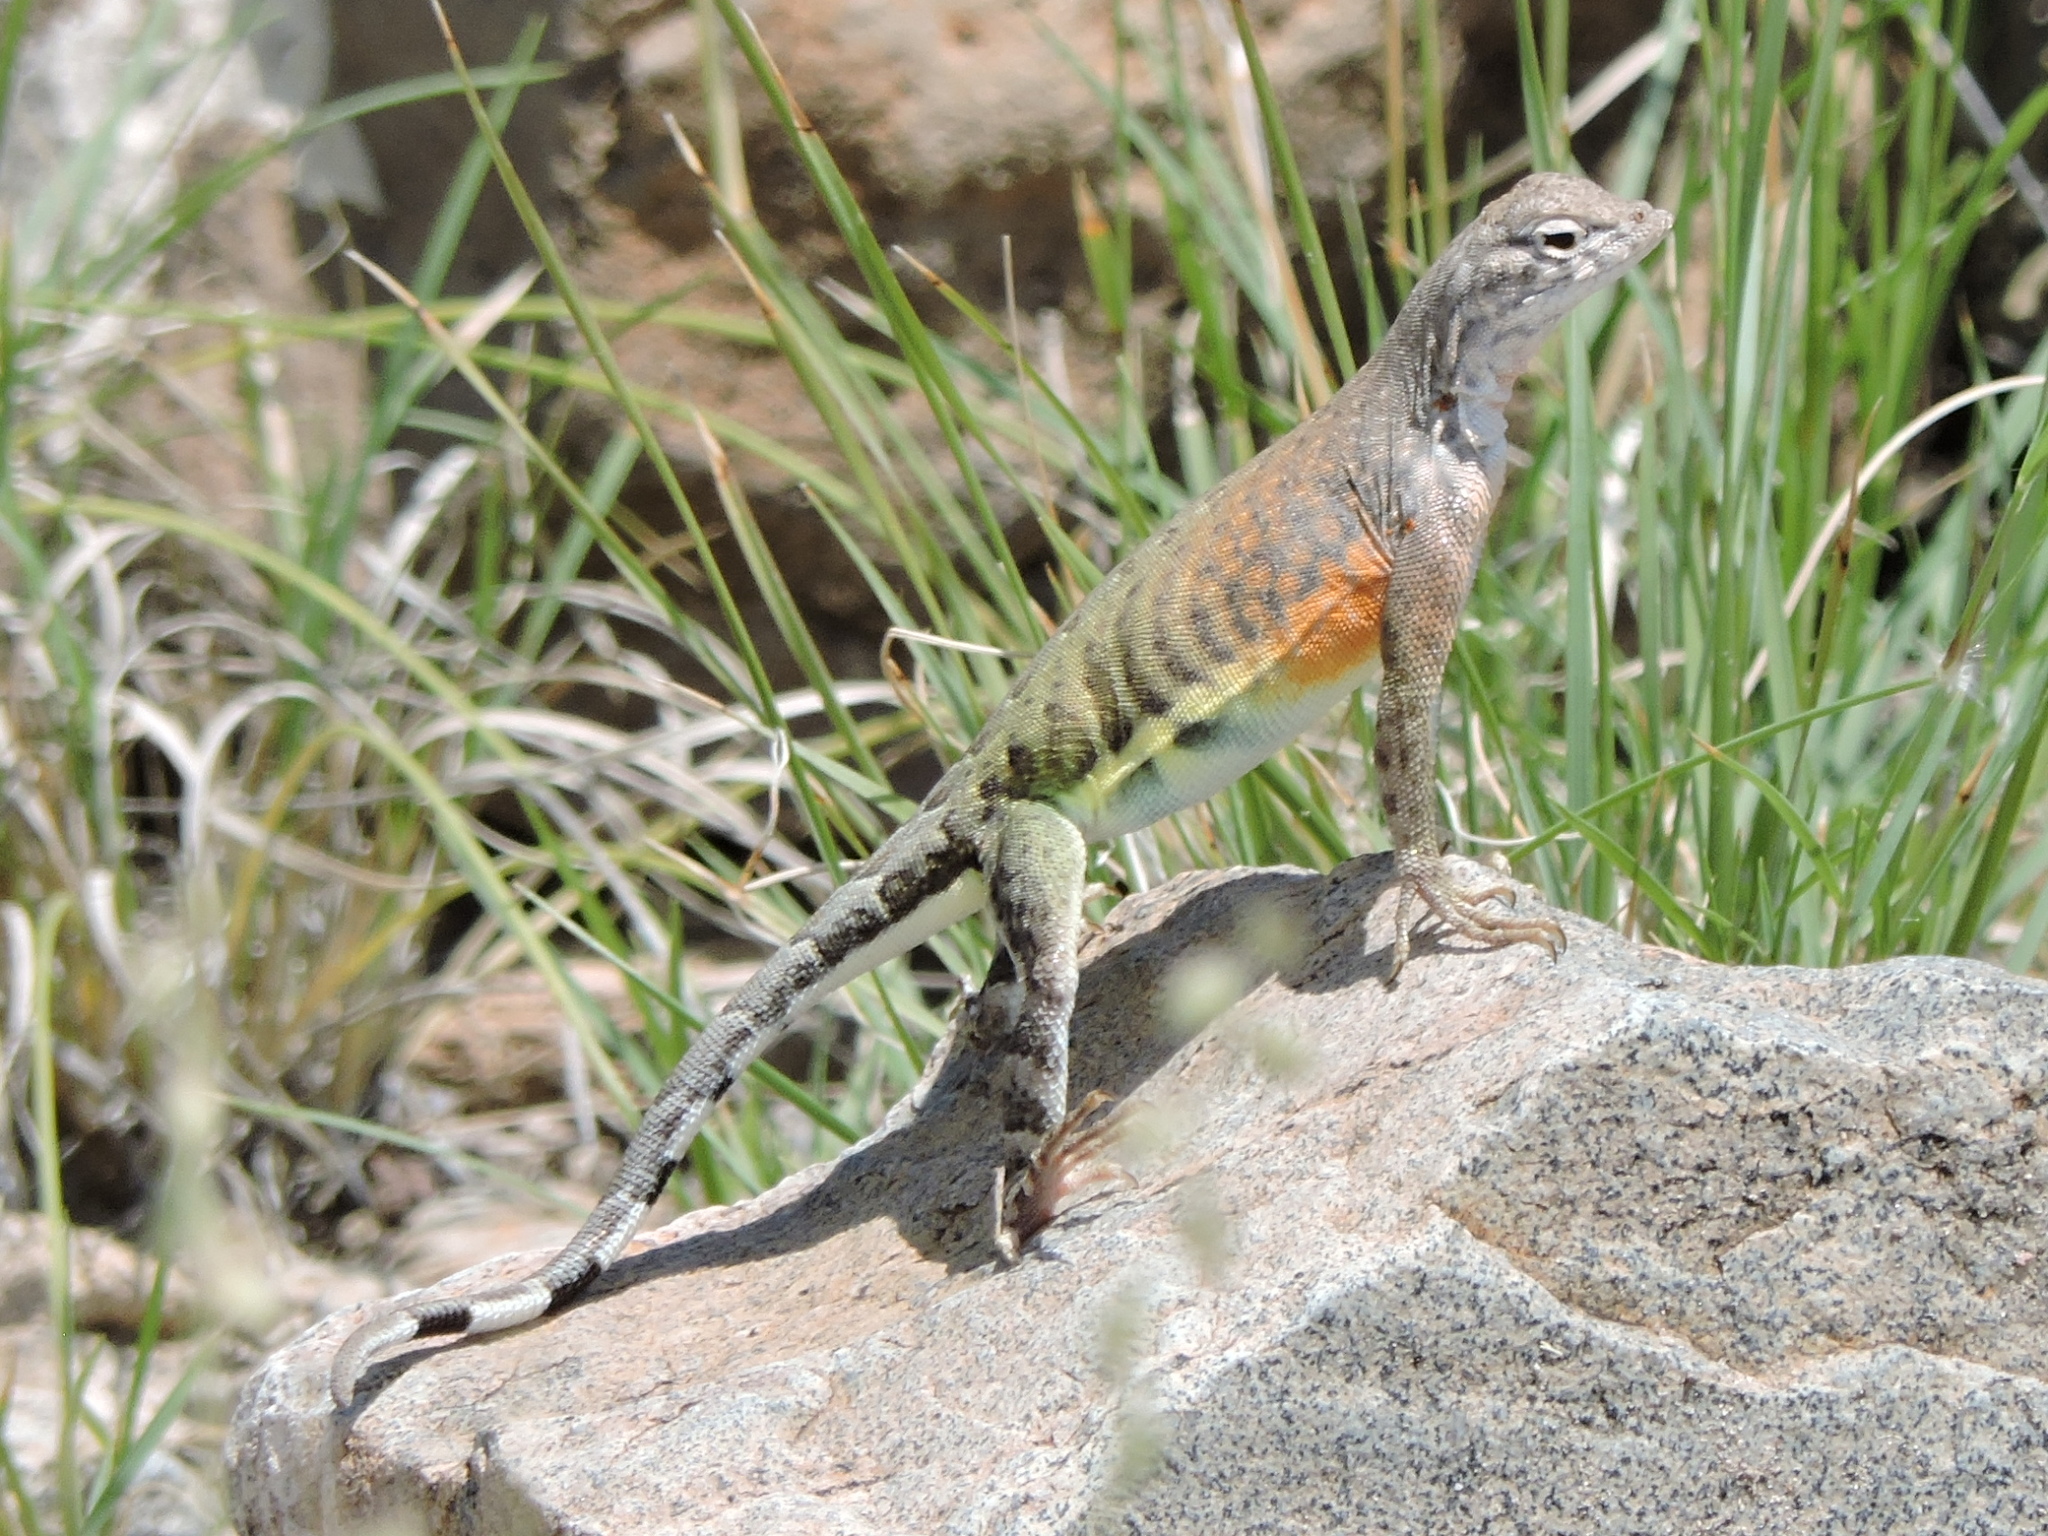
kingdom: Animalia
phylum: Chordata
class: Squamata
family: Phrynosomatidae
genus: Cophosaurus
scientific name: Cophosaurus texanus
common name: Greater earless lizard
